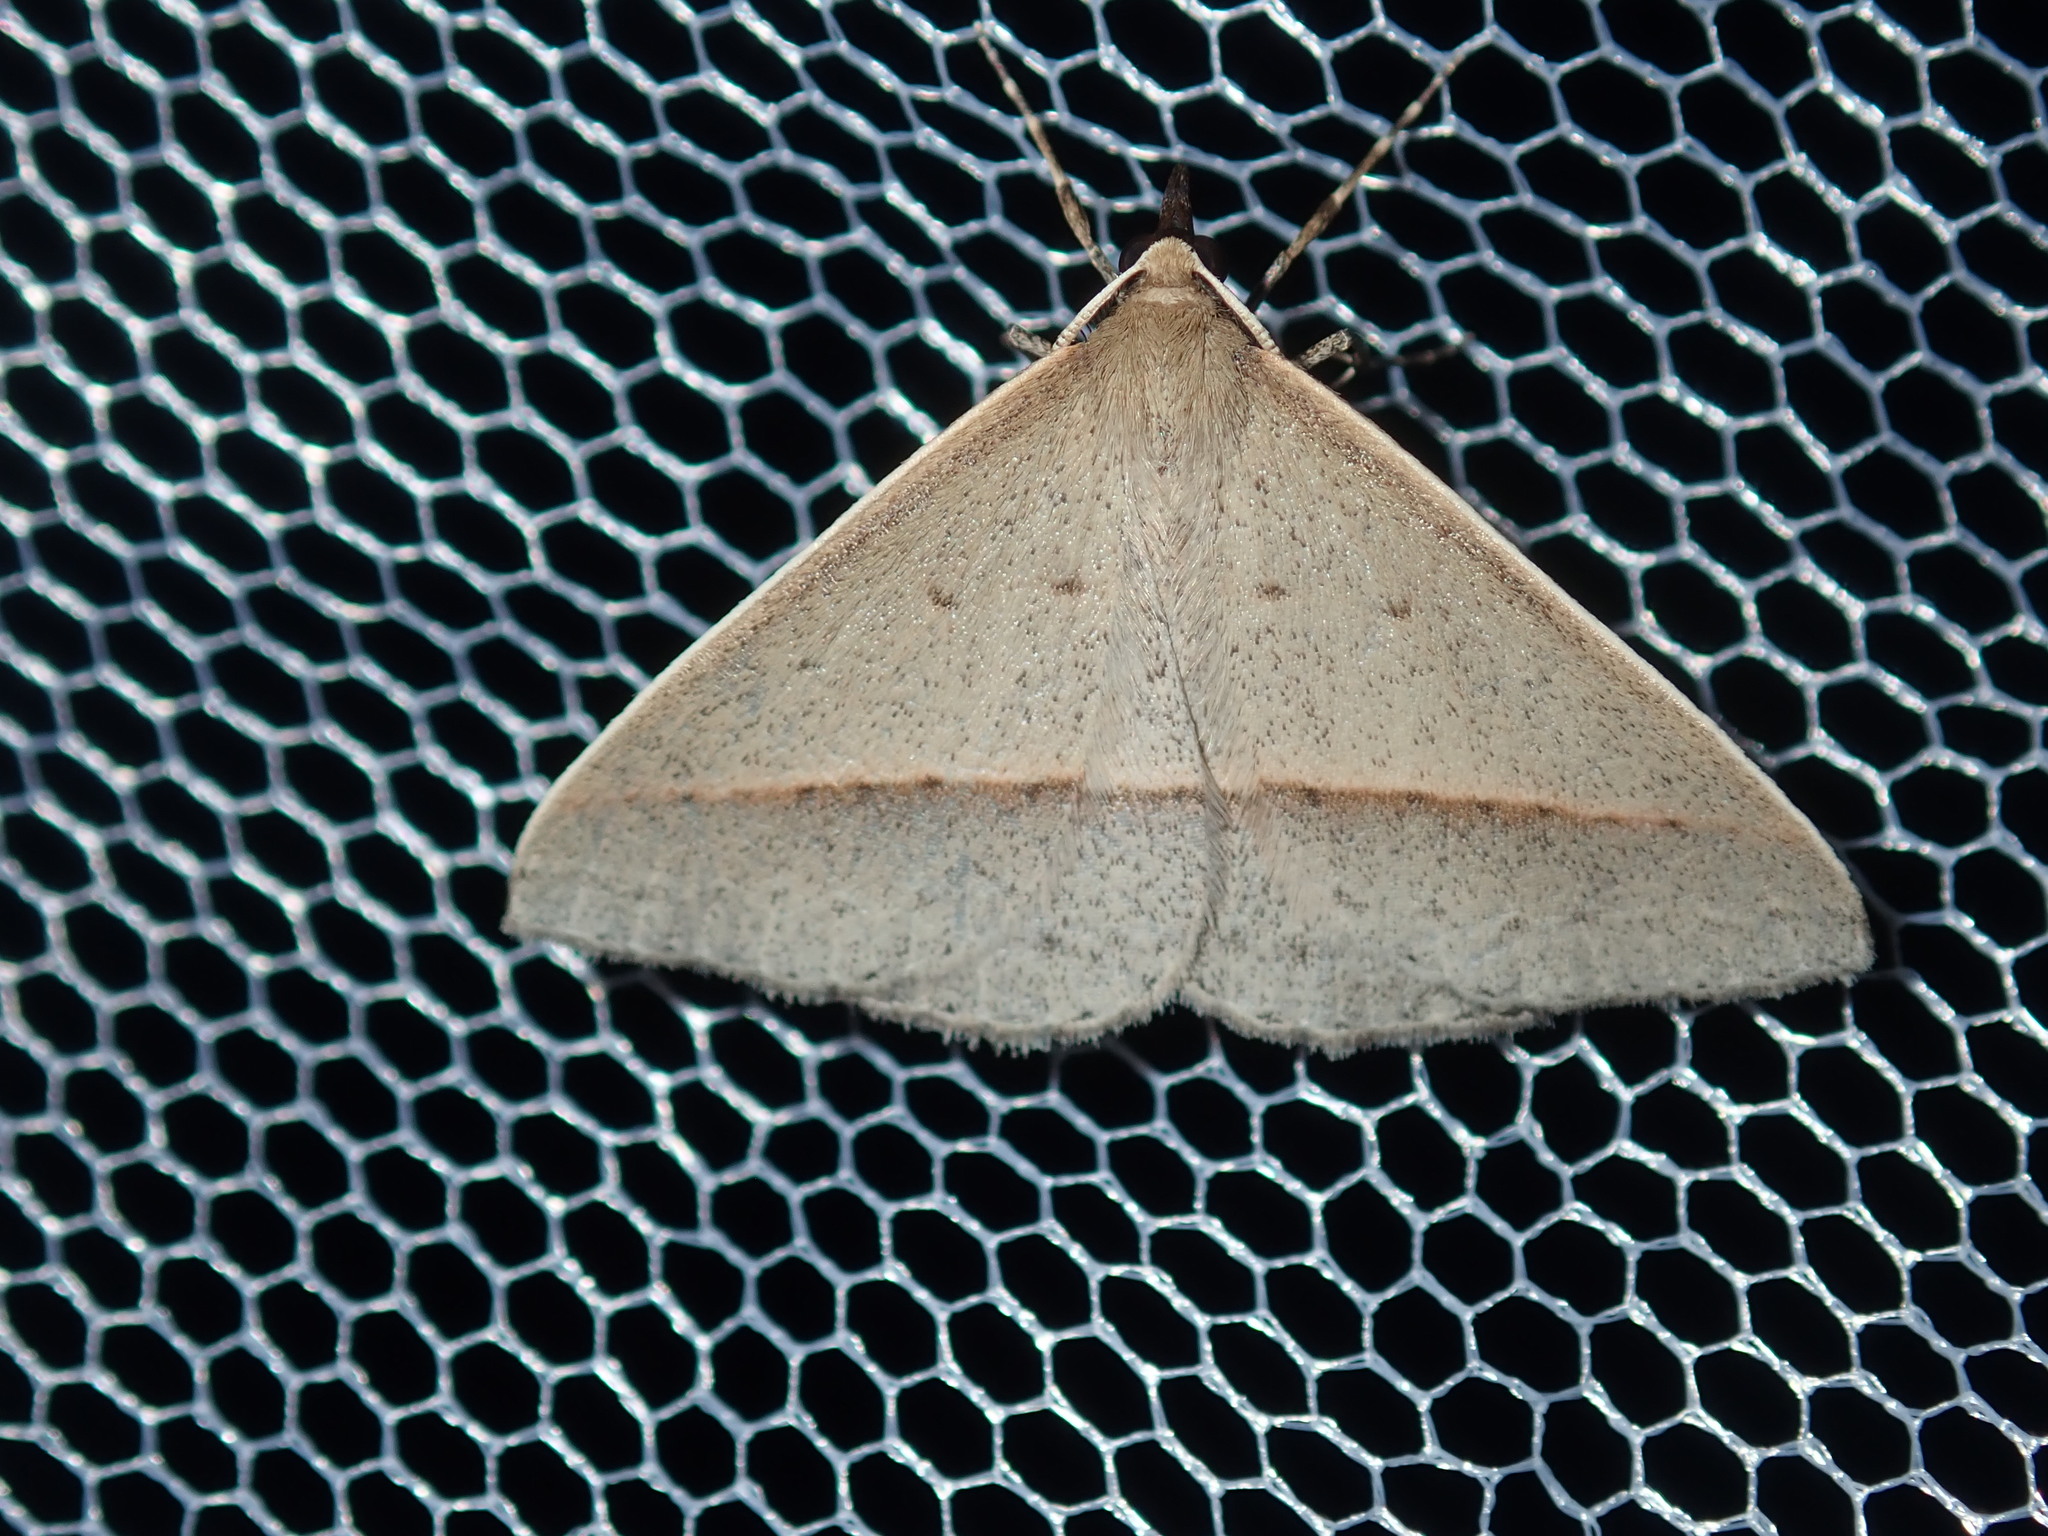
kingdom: Animalia
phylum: Arthropoda
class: Insecta
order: Lepidoptera
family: Geometridae
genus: Epidesmia
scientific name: Epidesmia tryxaria
